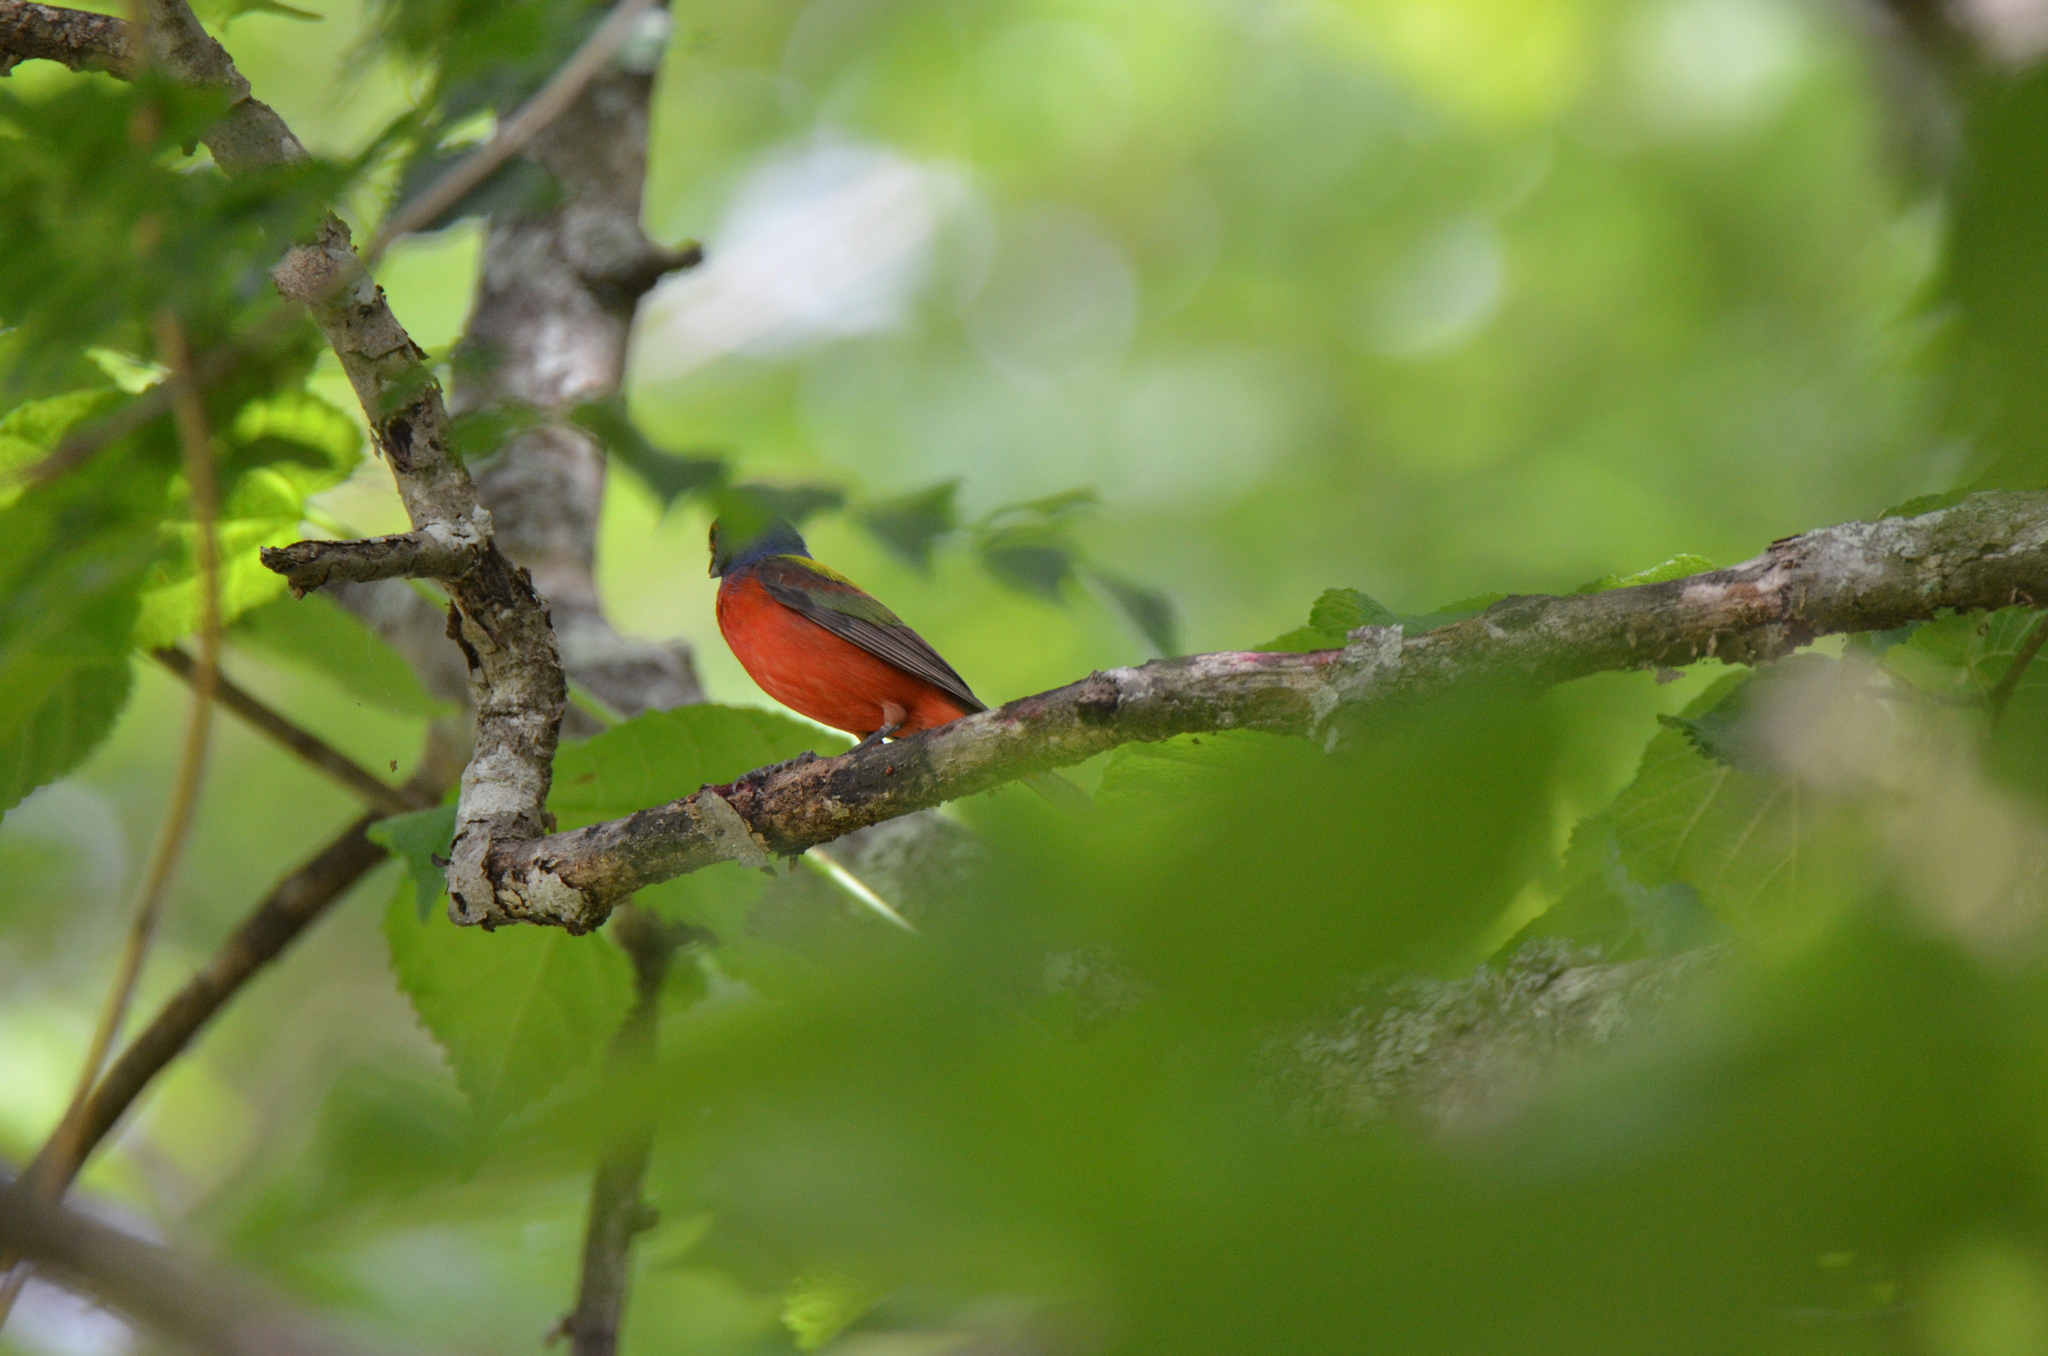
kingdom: Animalia
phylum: Chordata
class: Aves
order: Passeriformes
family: Cardinalidae
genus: Passerina
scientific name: Passerina ciris
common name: Painted bunting
